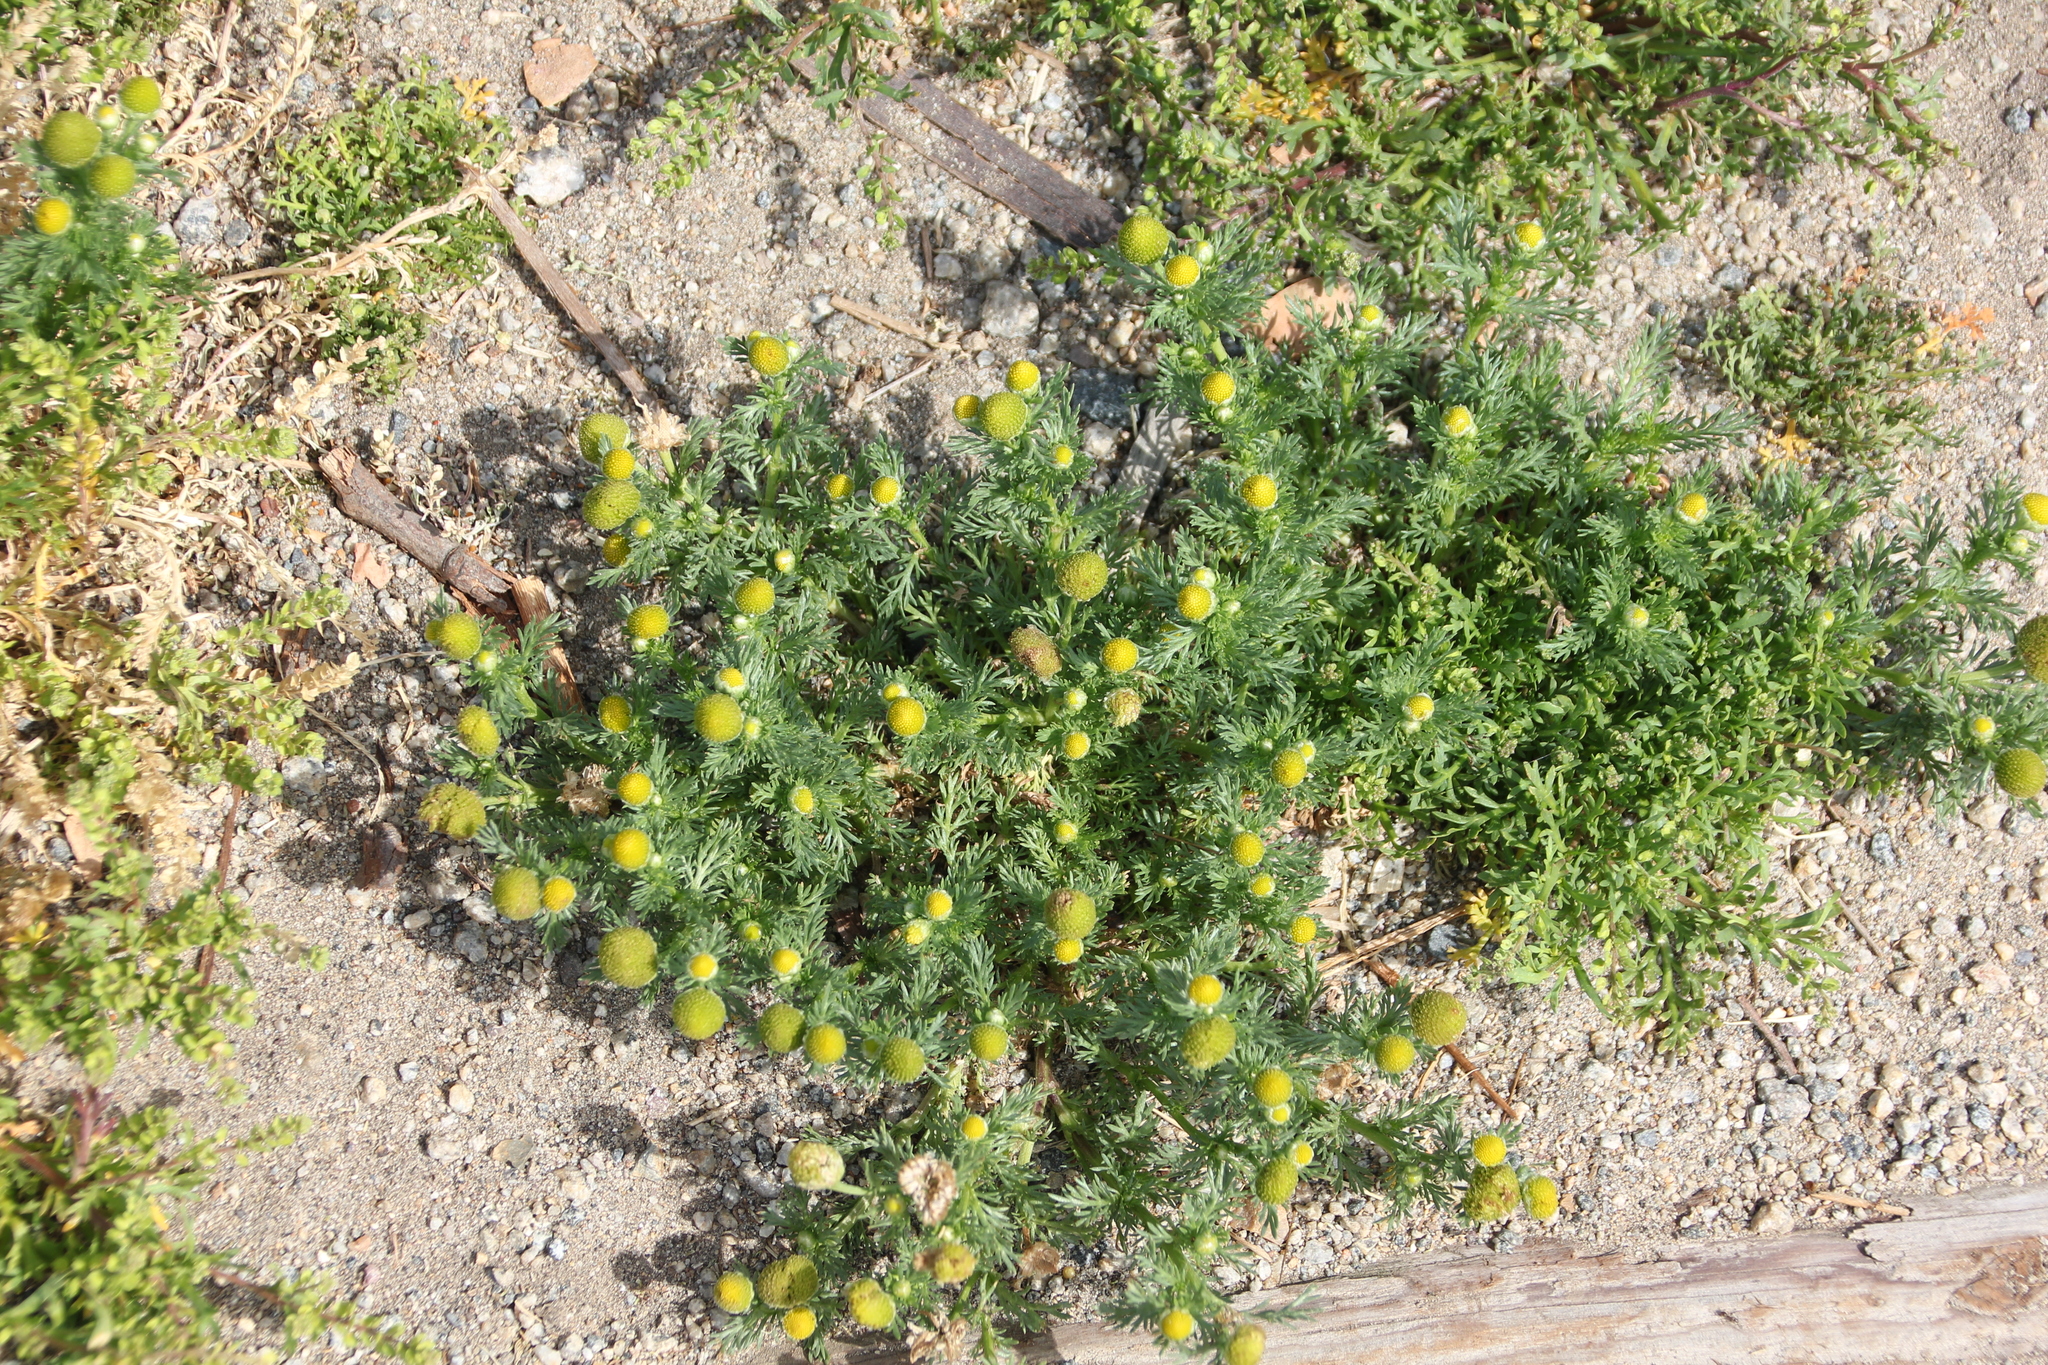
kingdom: Plantae
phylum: Tracheophyta
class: Magnoliopsida
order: Asterales
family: Asteraceae
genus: Matricaria
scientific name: Matricaria discoidea
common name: Disc mayweed
